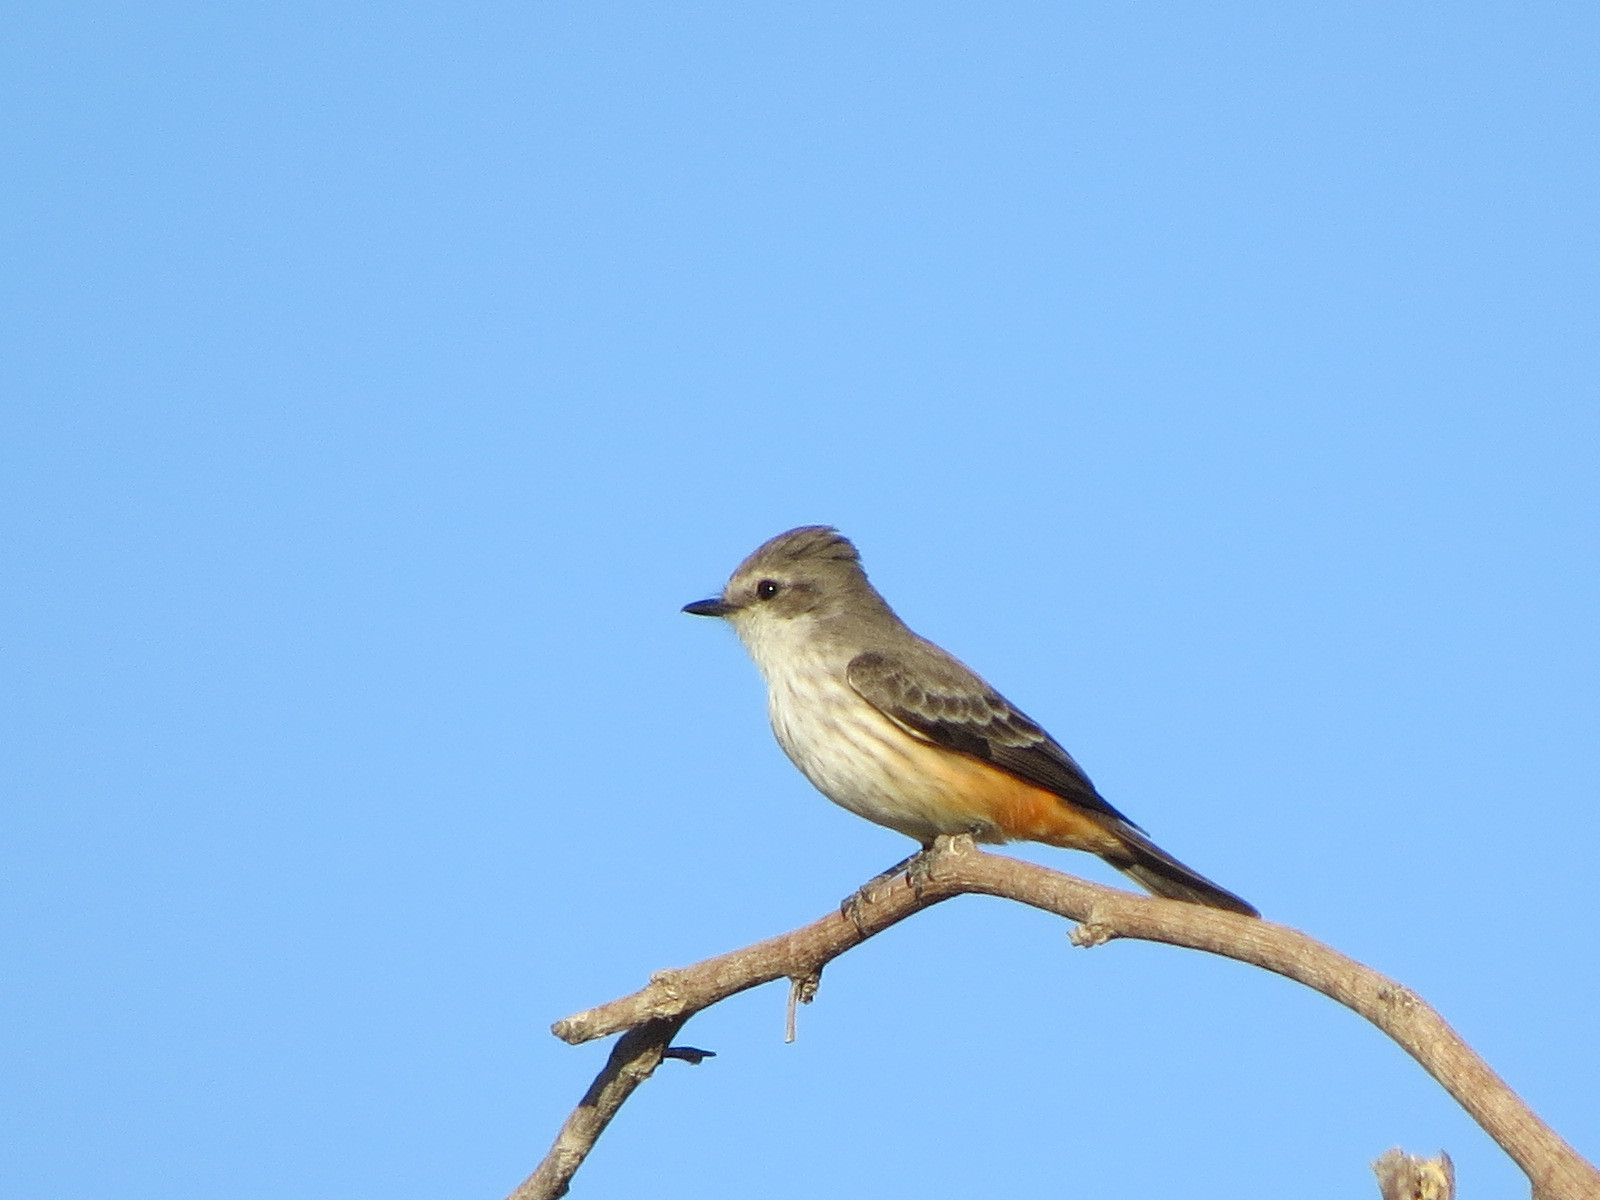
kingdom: Animalia
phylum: Chordata
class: Aves
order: Passeriformes
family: Tyrannidae
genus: Pyrocephalus
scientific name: Pyrocephalus rubinus
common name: Vermilion flycatcher
